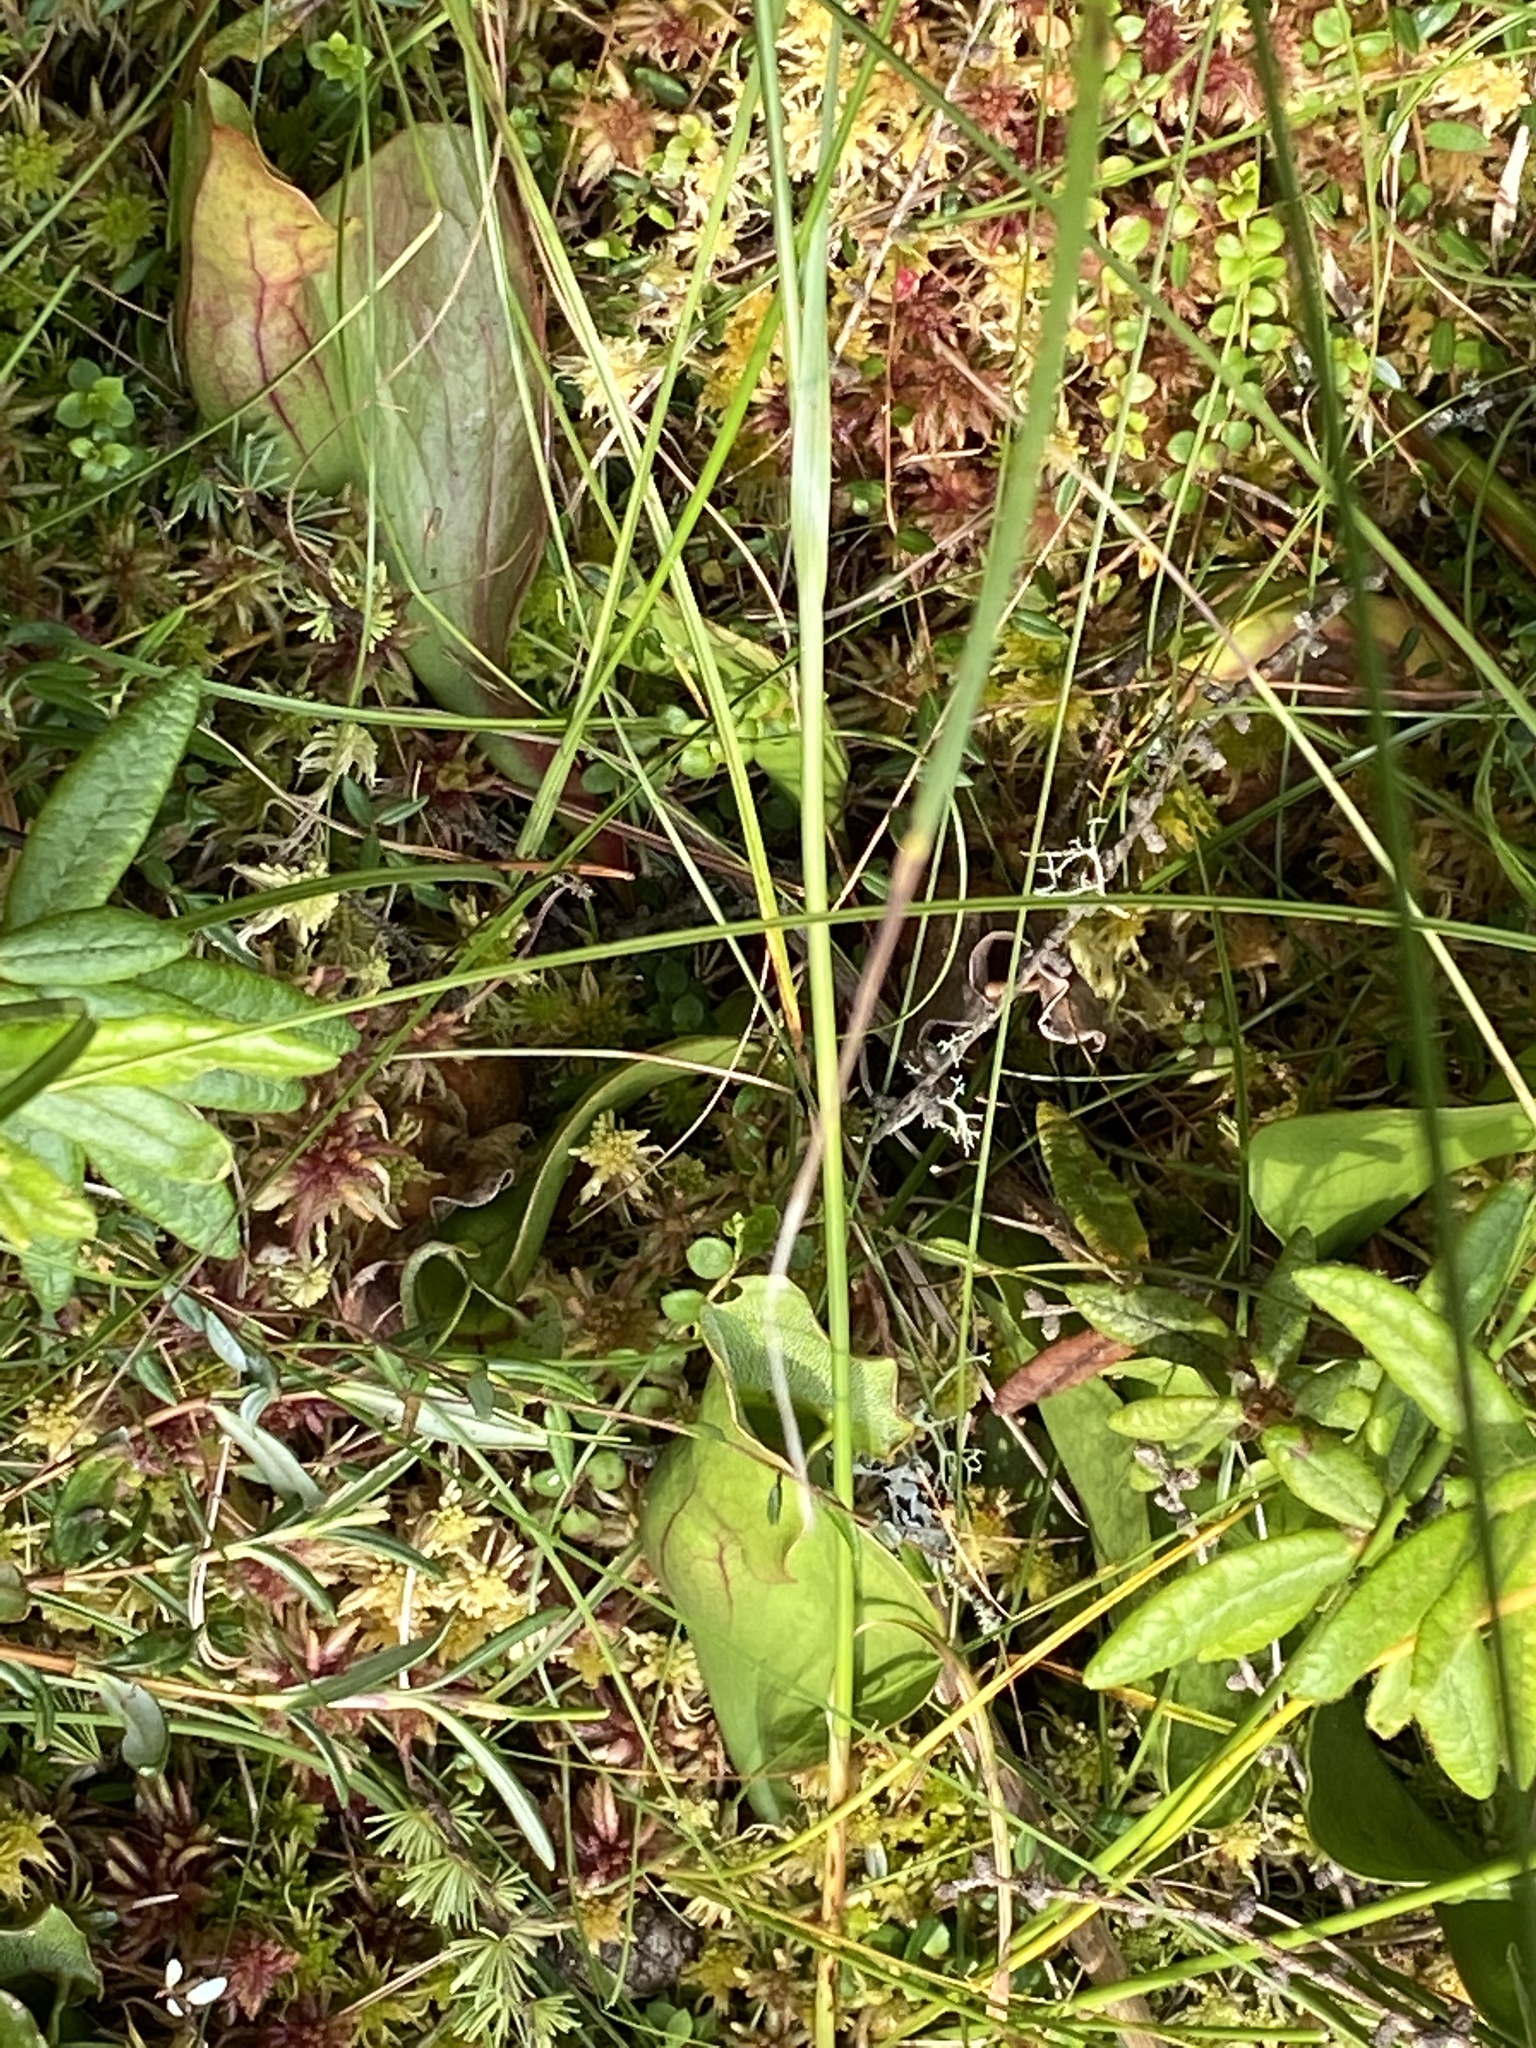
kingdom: Plantae
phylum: Tracheophyta
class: Magnoliopsida
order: Ericales
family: Sarraceniaceae
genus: Sarracenia
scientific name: Sarracenia purpurea
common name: Pitcherplant
